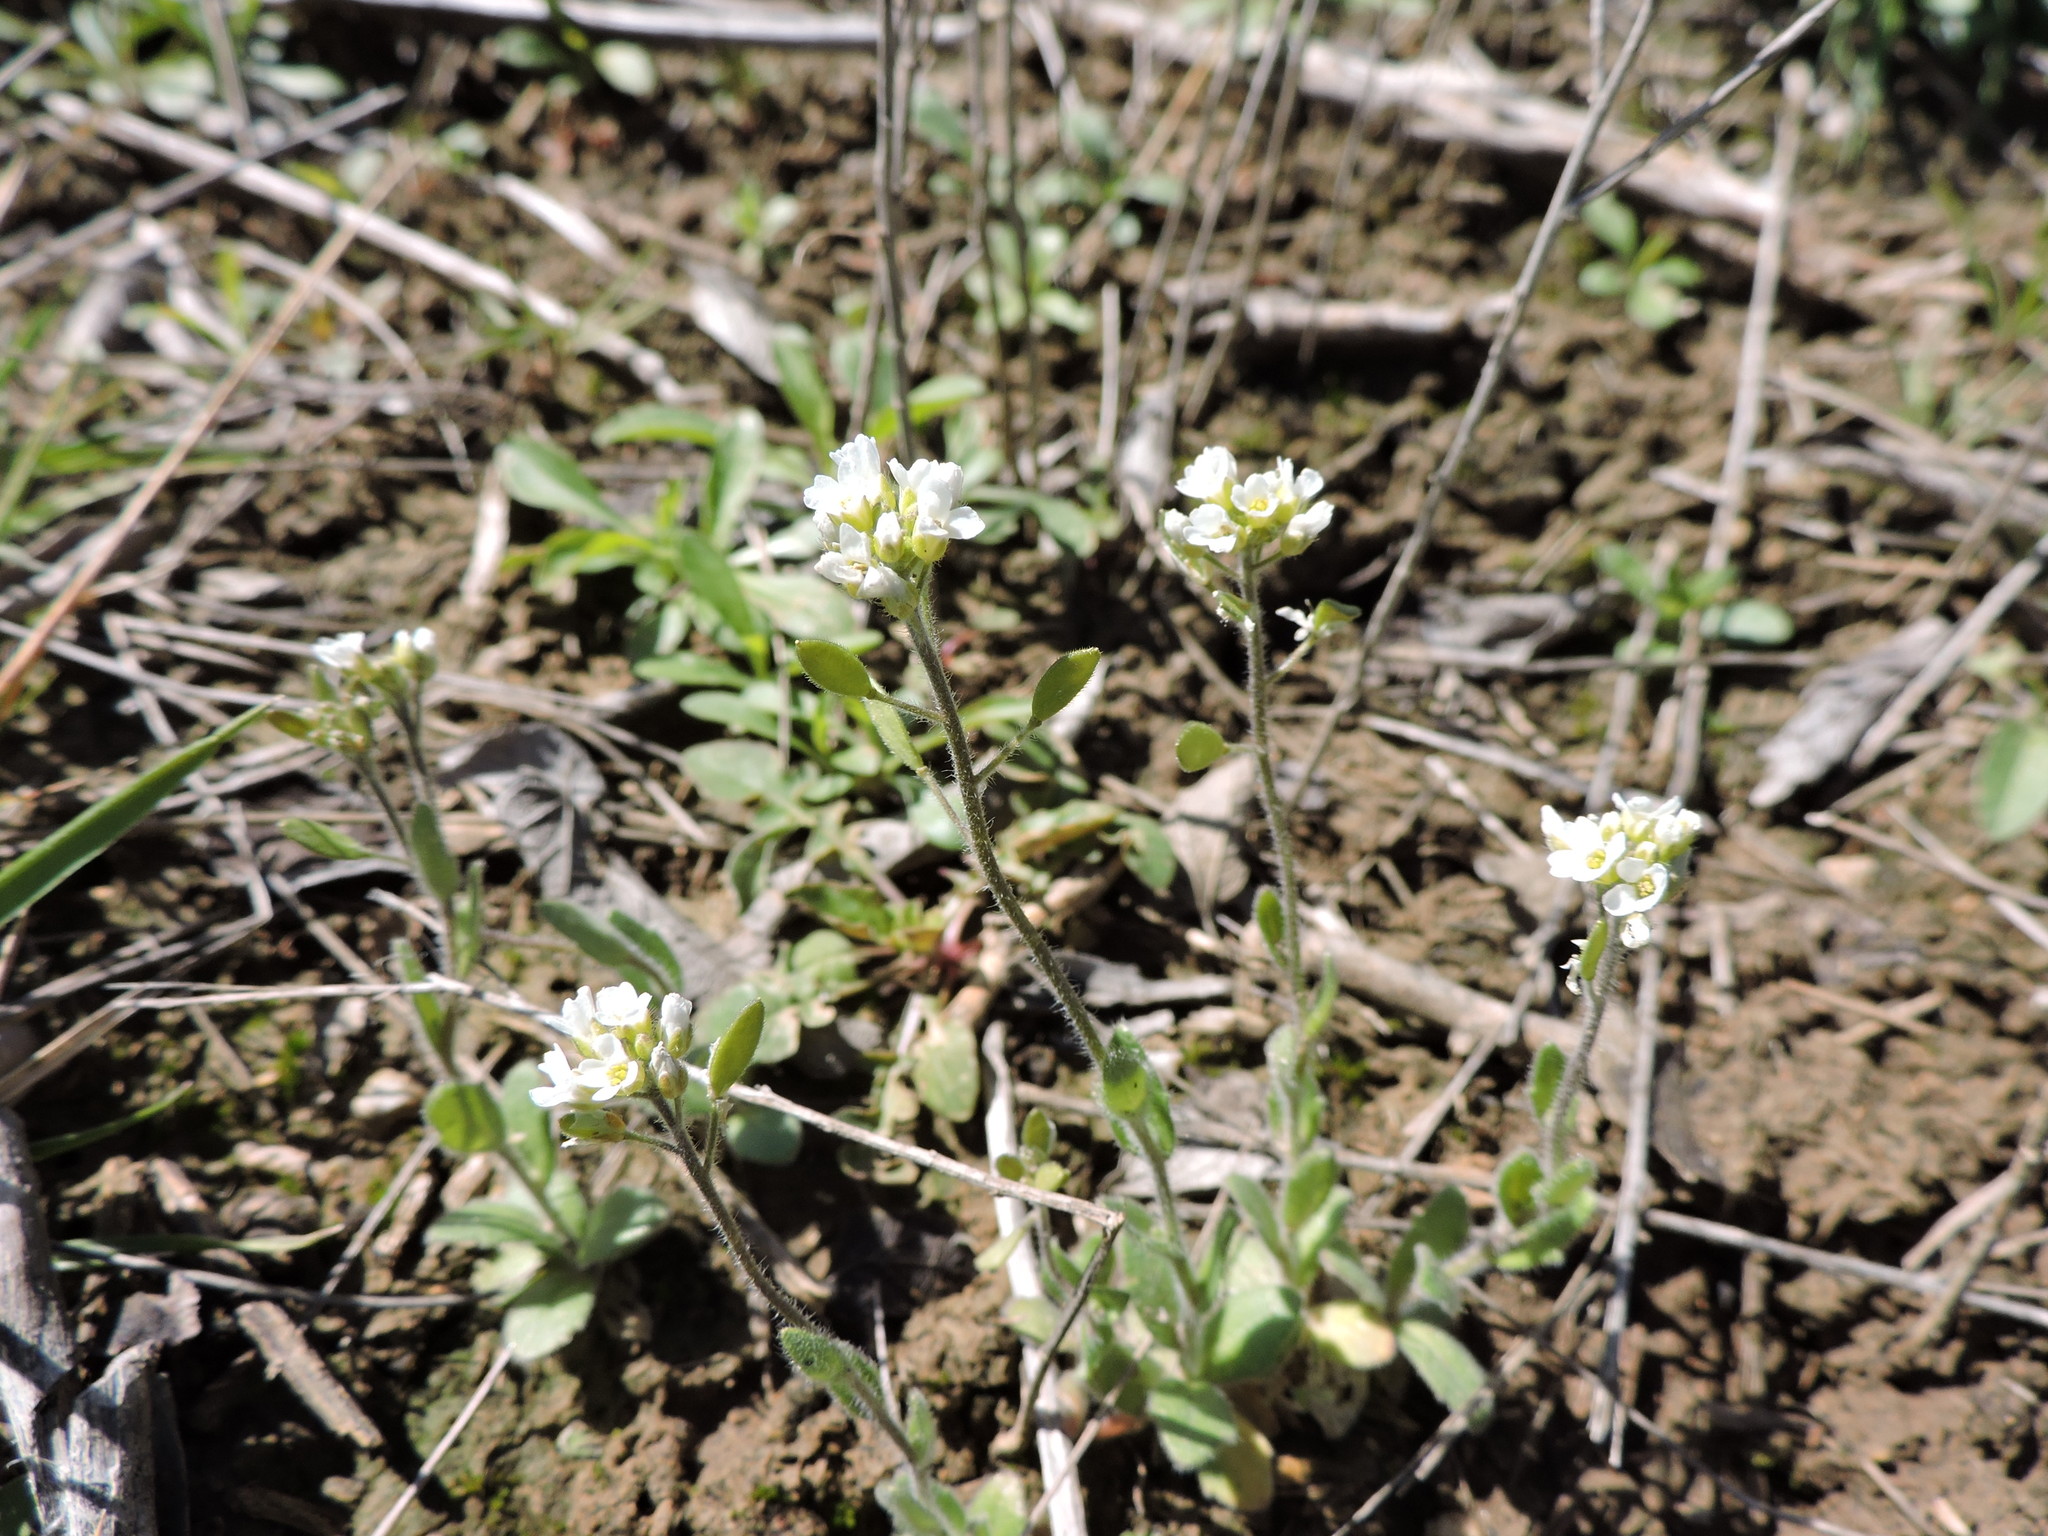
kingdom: Plantae
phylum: Tracheophyta
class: Magnoliopsida
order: Brassicales
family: Brassicaceae
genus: Tomostima
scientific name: Tomostima platycarpa
